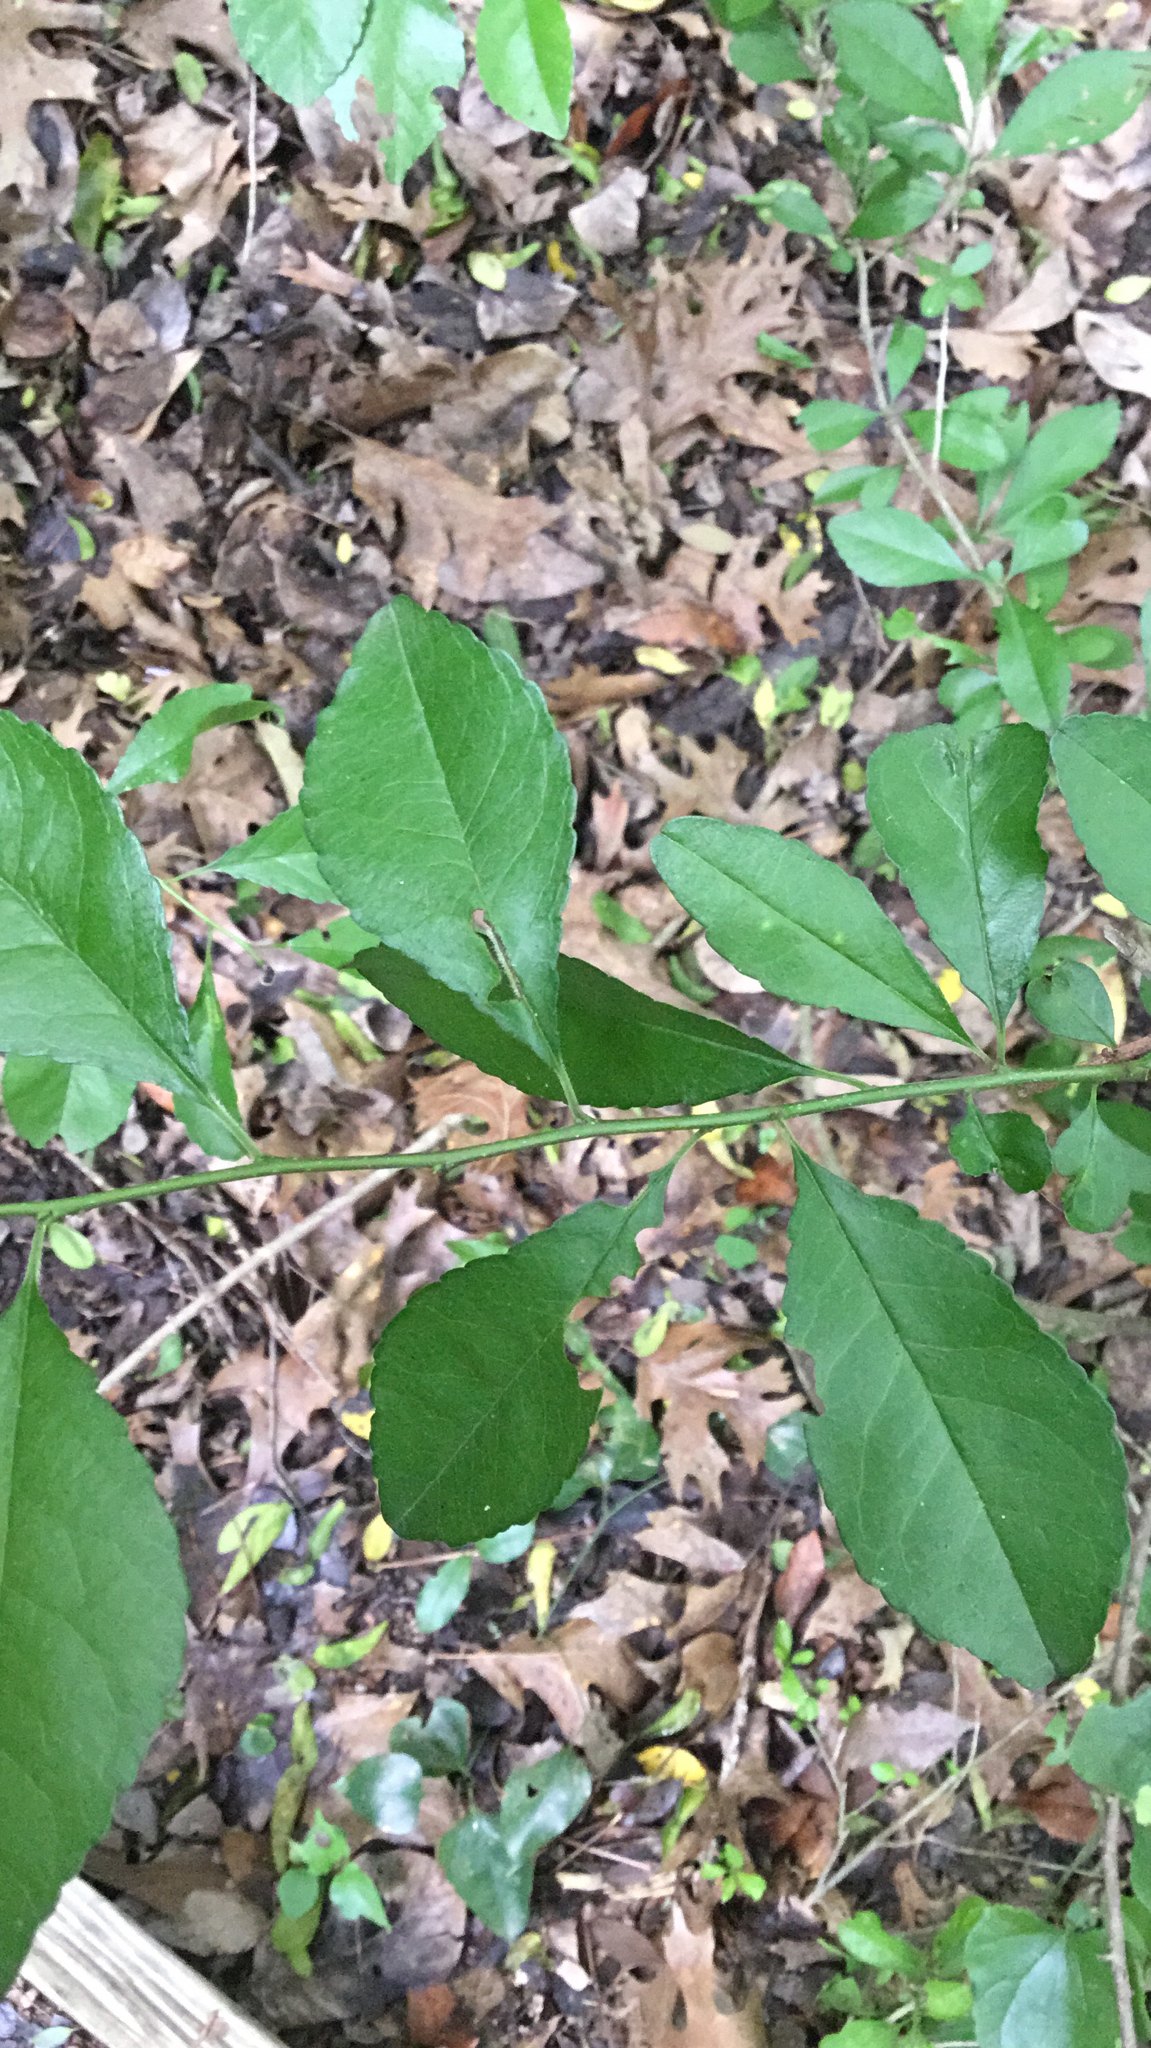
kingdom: Plantae
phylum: Tracheophyta
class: Magnoliopsida
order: Aquifoliales
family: Aquifoliaceae
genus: Ilex
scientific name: Ilex decidua
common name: Possum-haw
